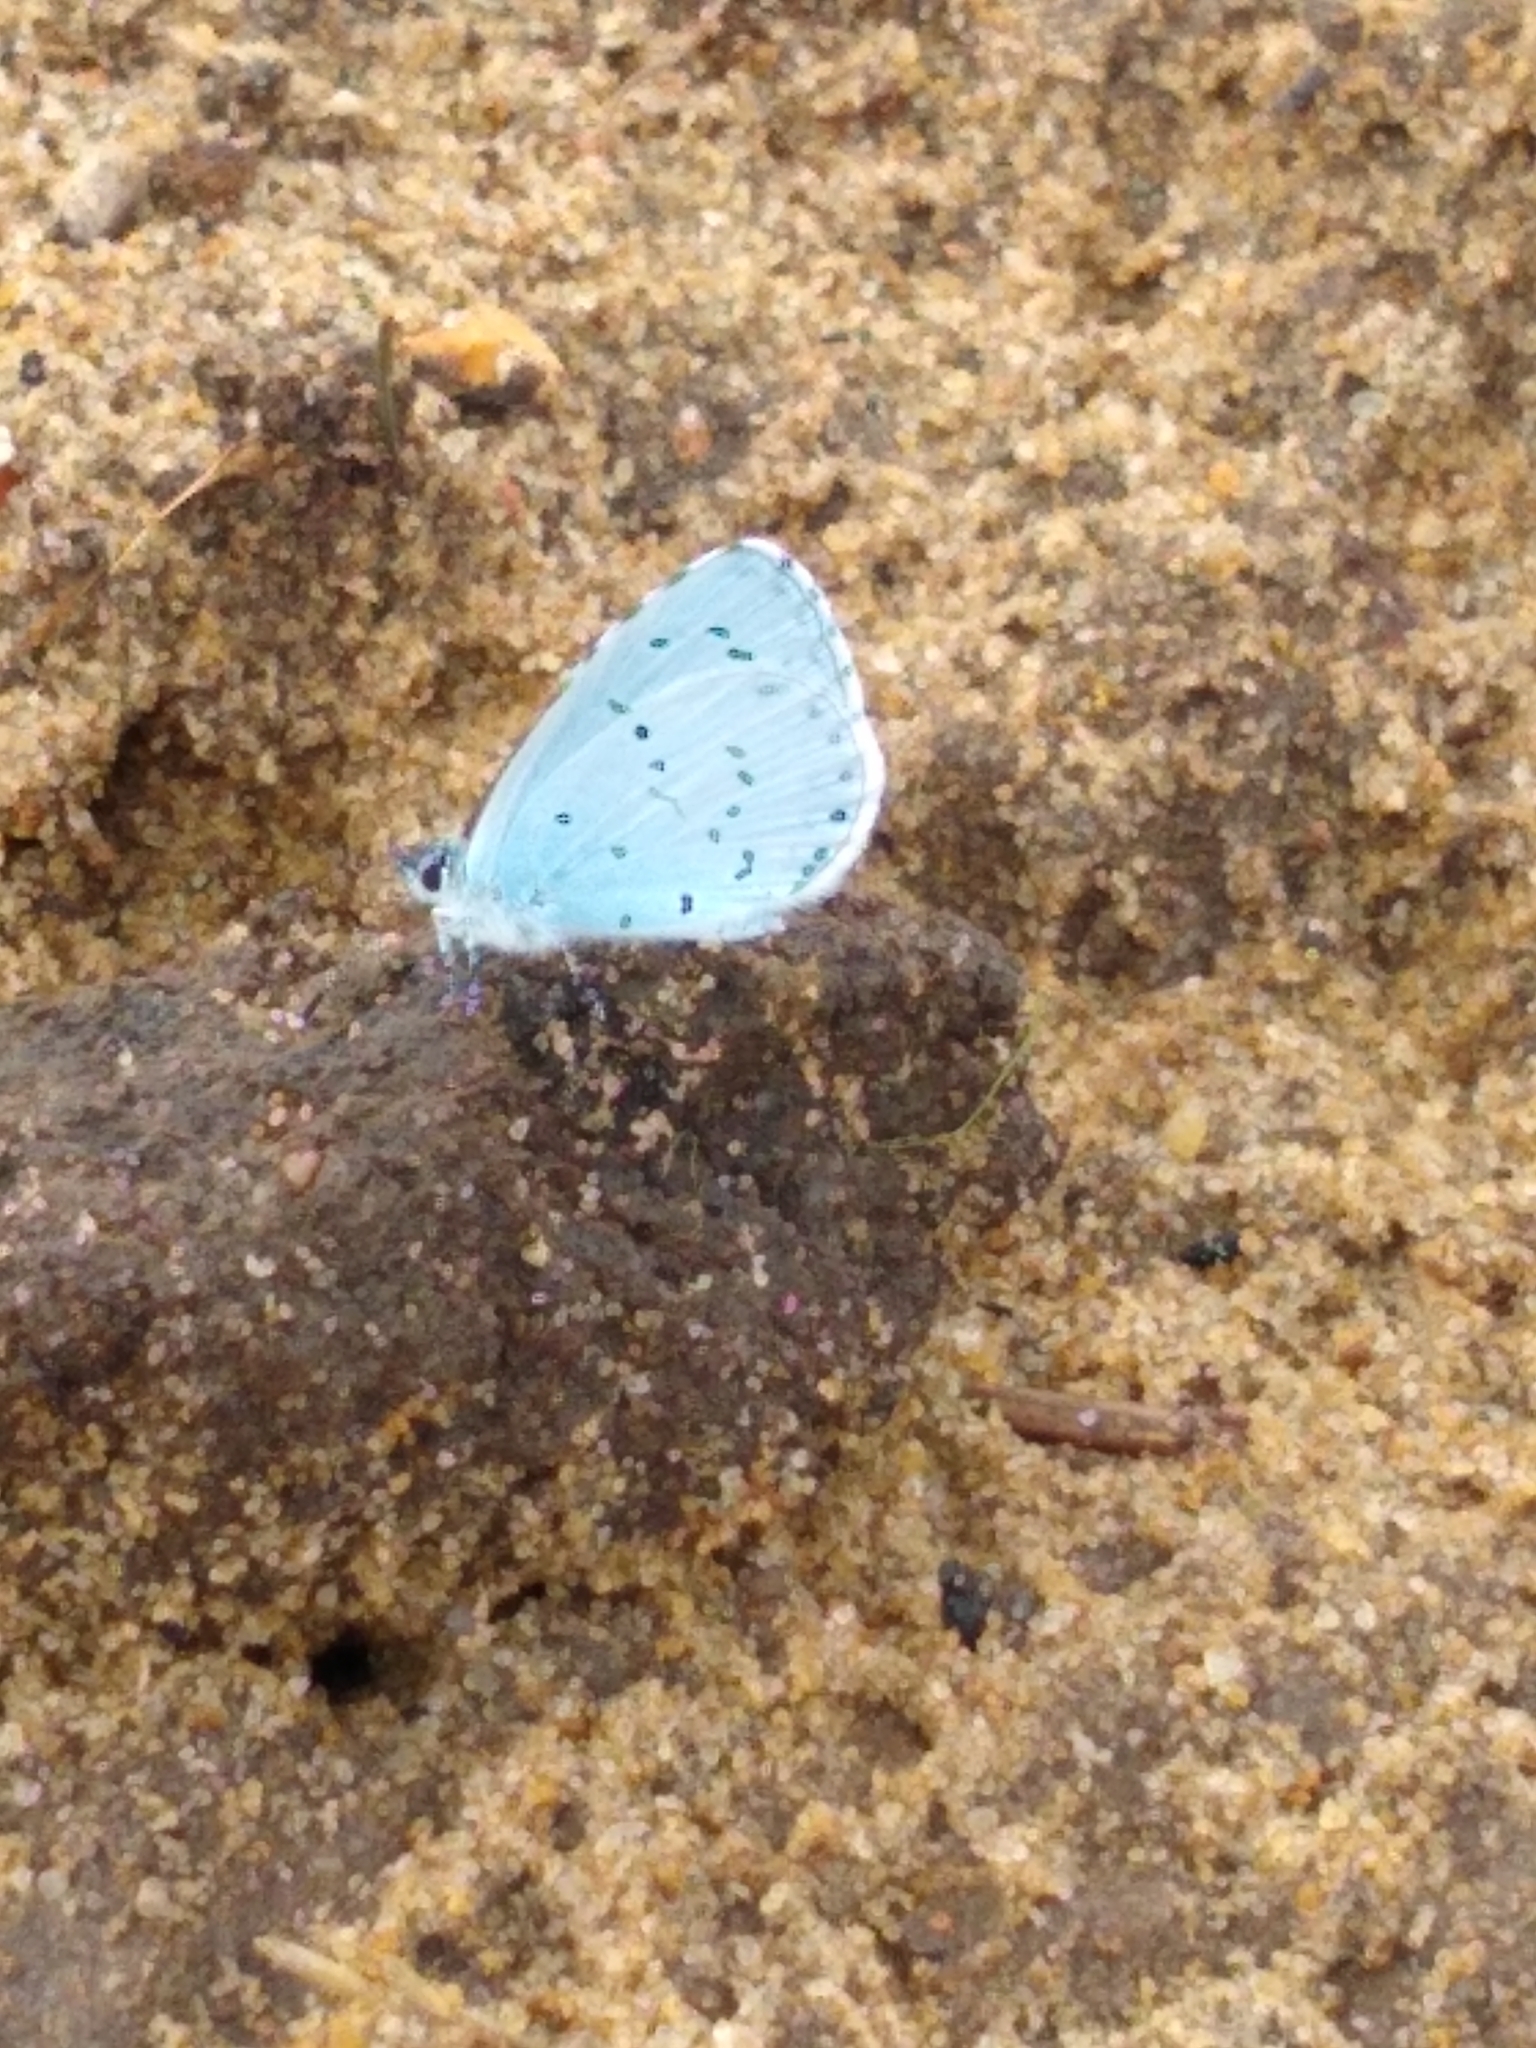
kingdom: Animalia
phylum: Arthropoda
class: Insecta
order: Lepidoptera
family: Lycaenidae
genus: Celastrina
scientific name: Celastrina argiolus
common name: Holly blue
